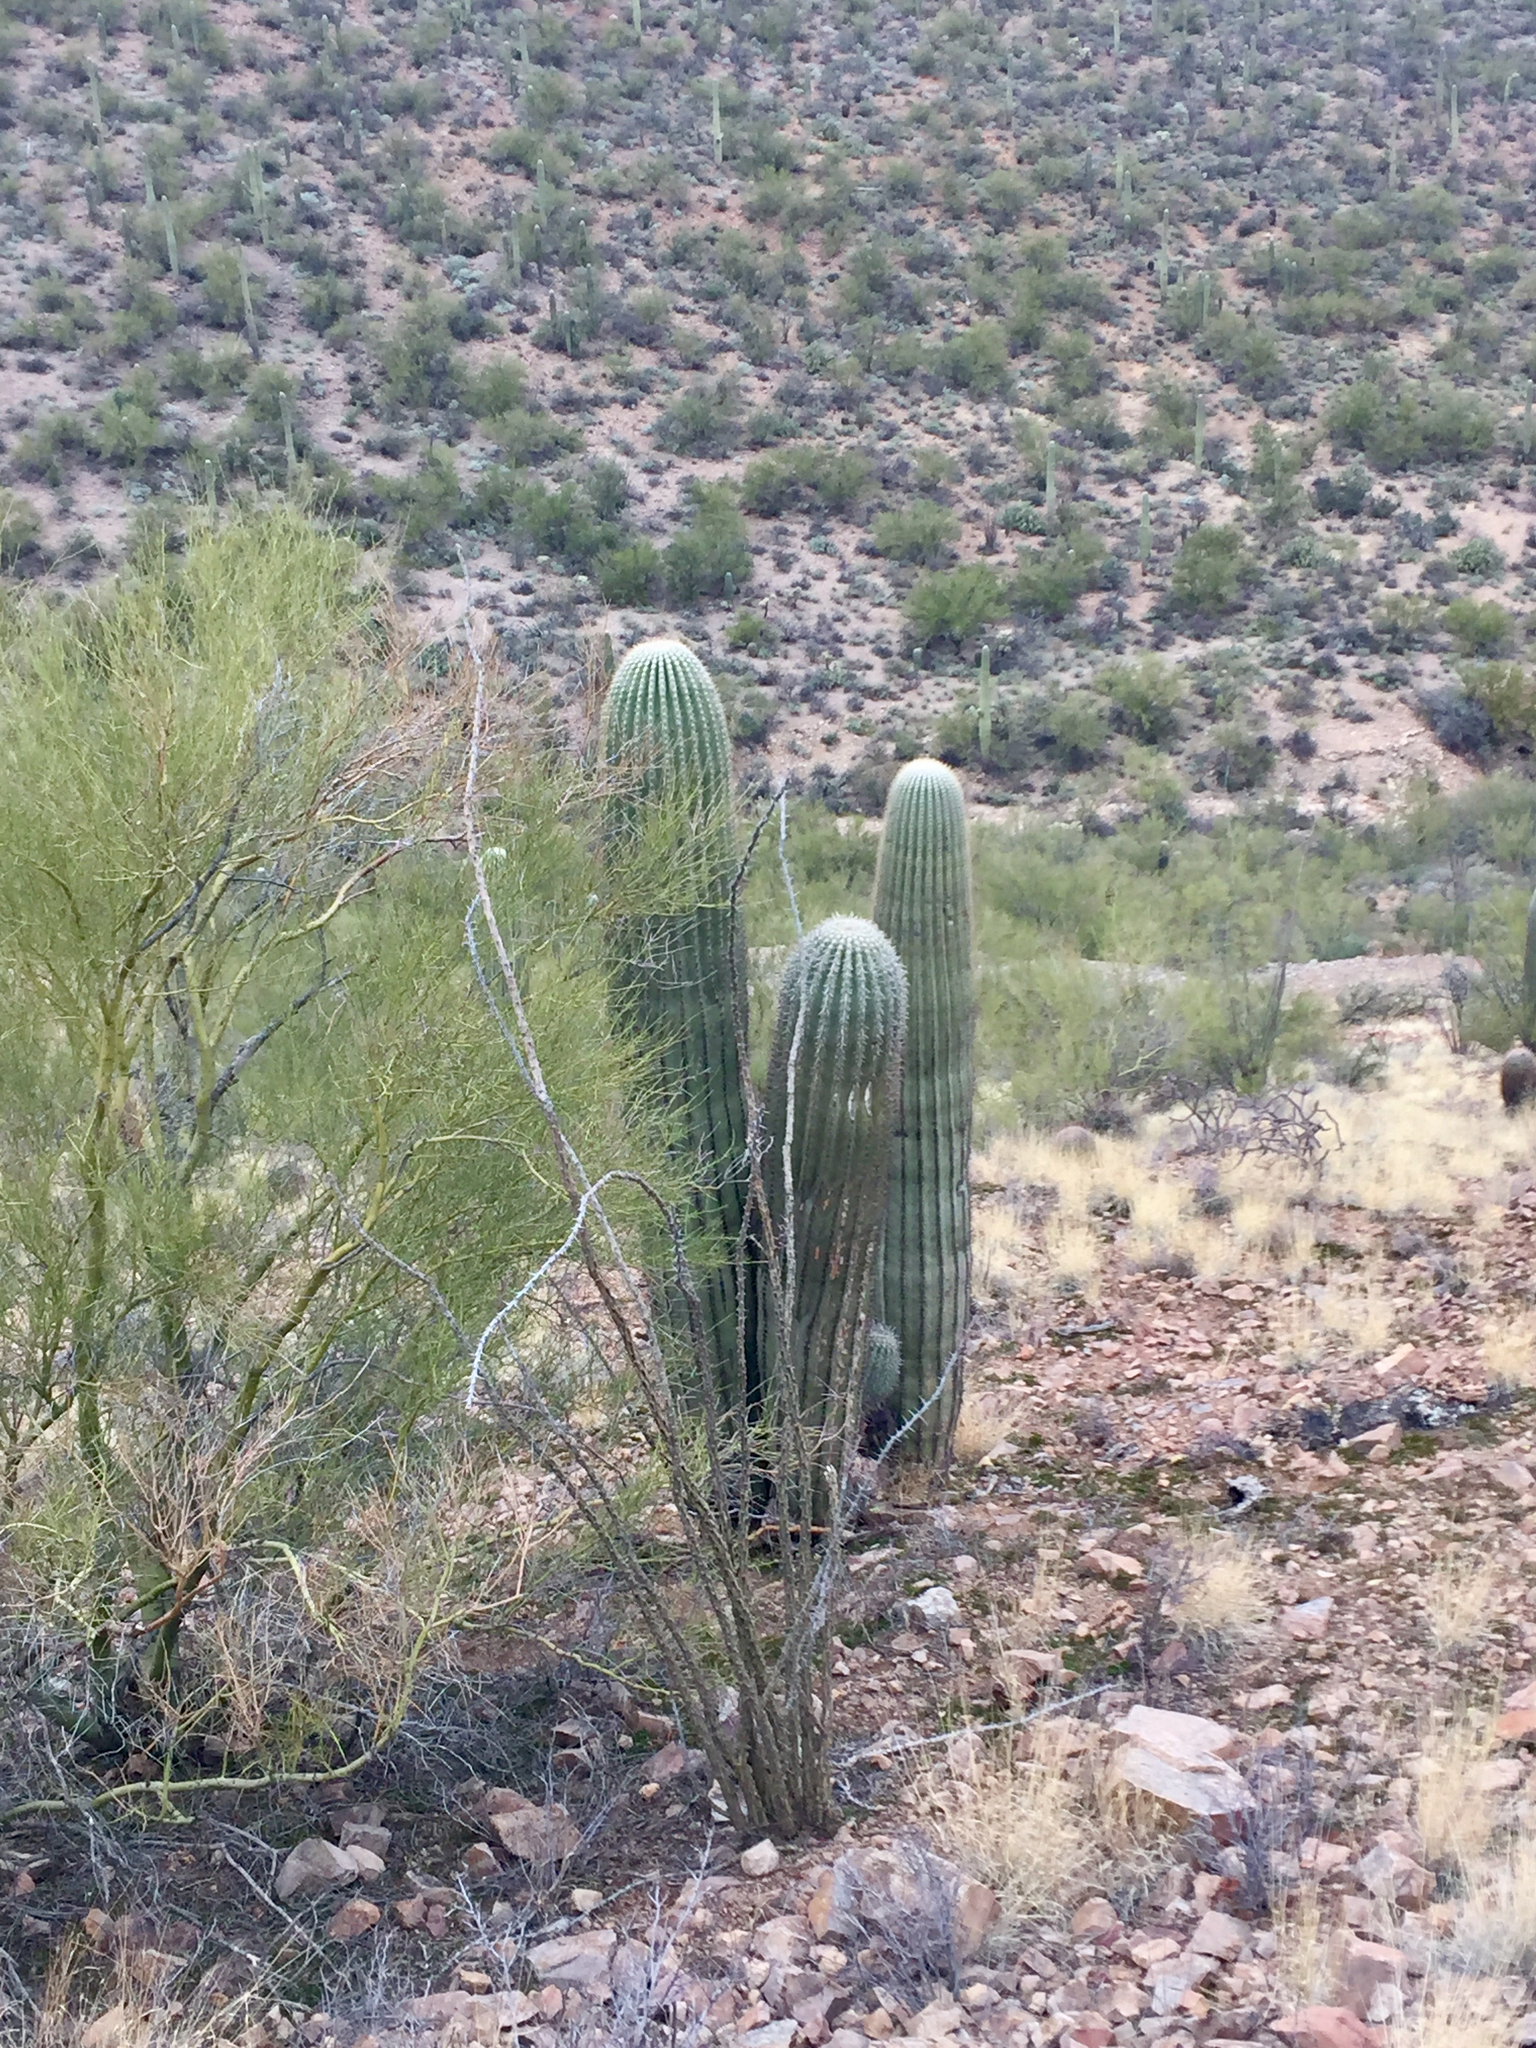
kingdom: Plantae
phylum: Tracheophyta
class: Magnoliopsida
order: Caryophyllales
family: Cactaceae
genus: Carnegiea
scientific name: Carnegiea gigantea
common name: Saguaro
